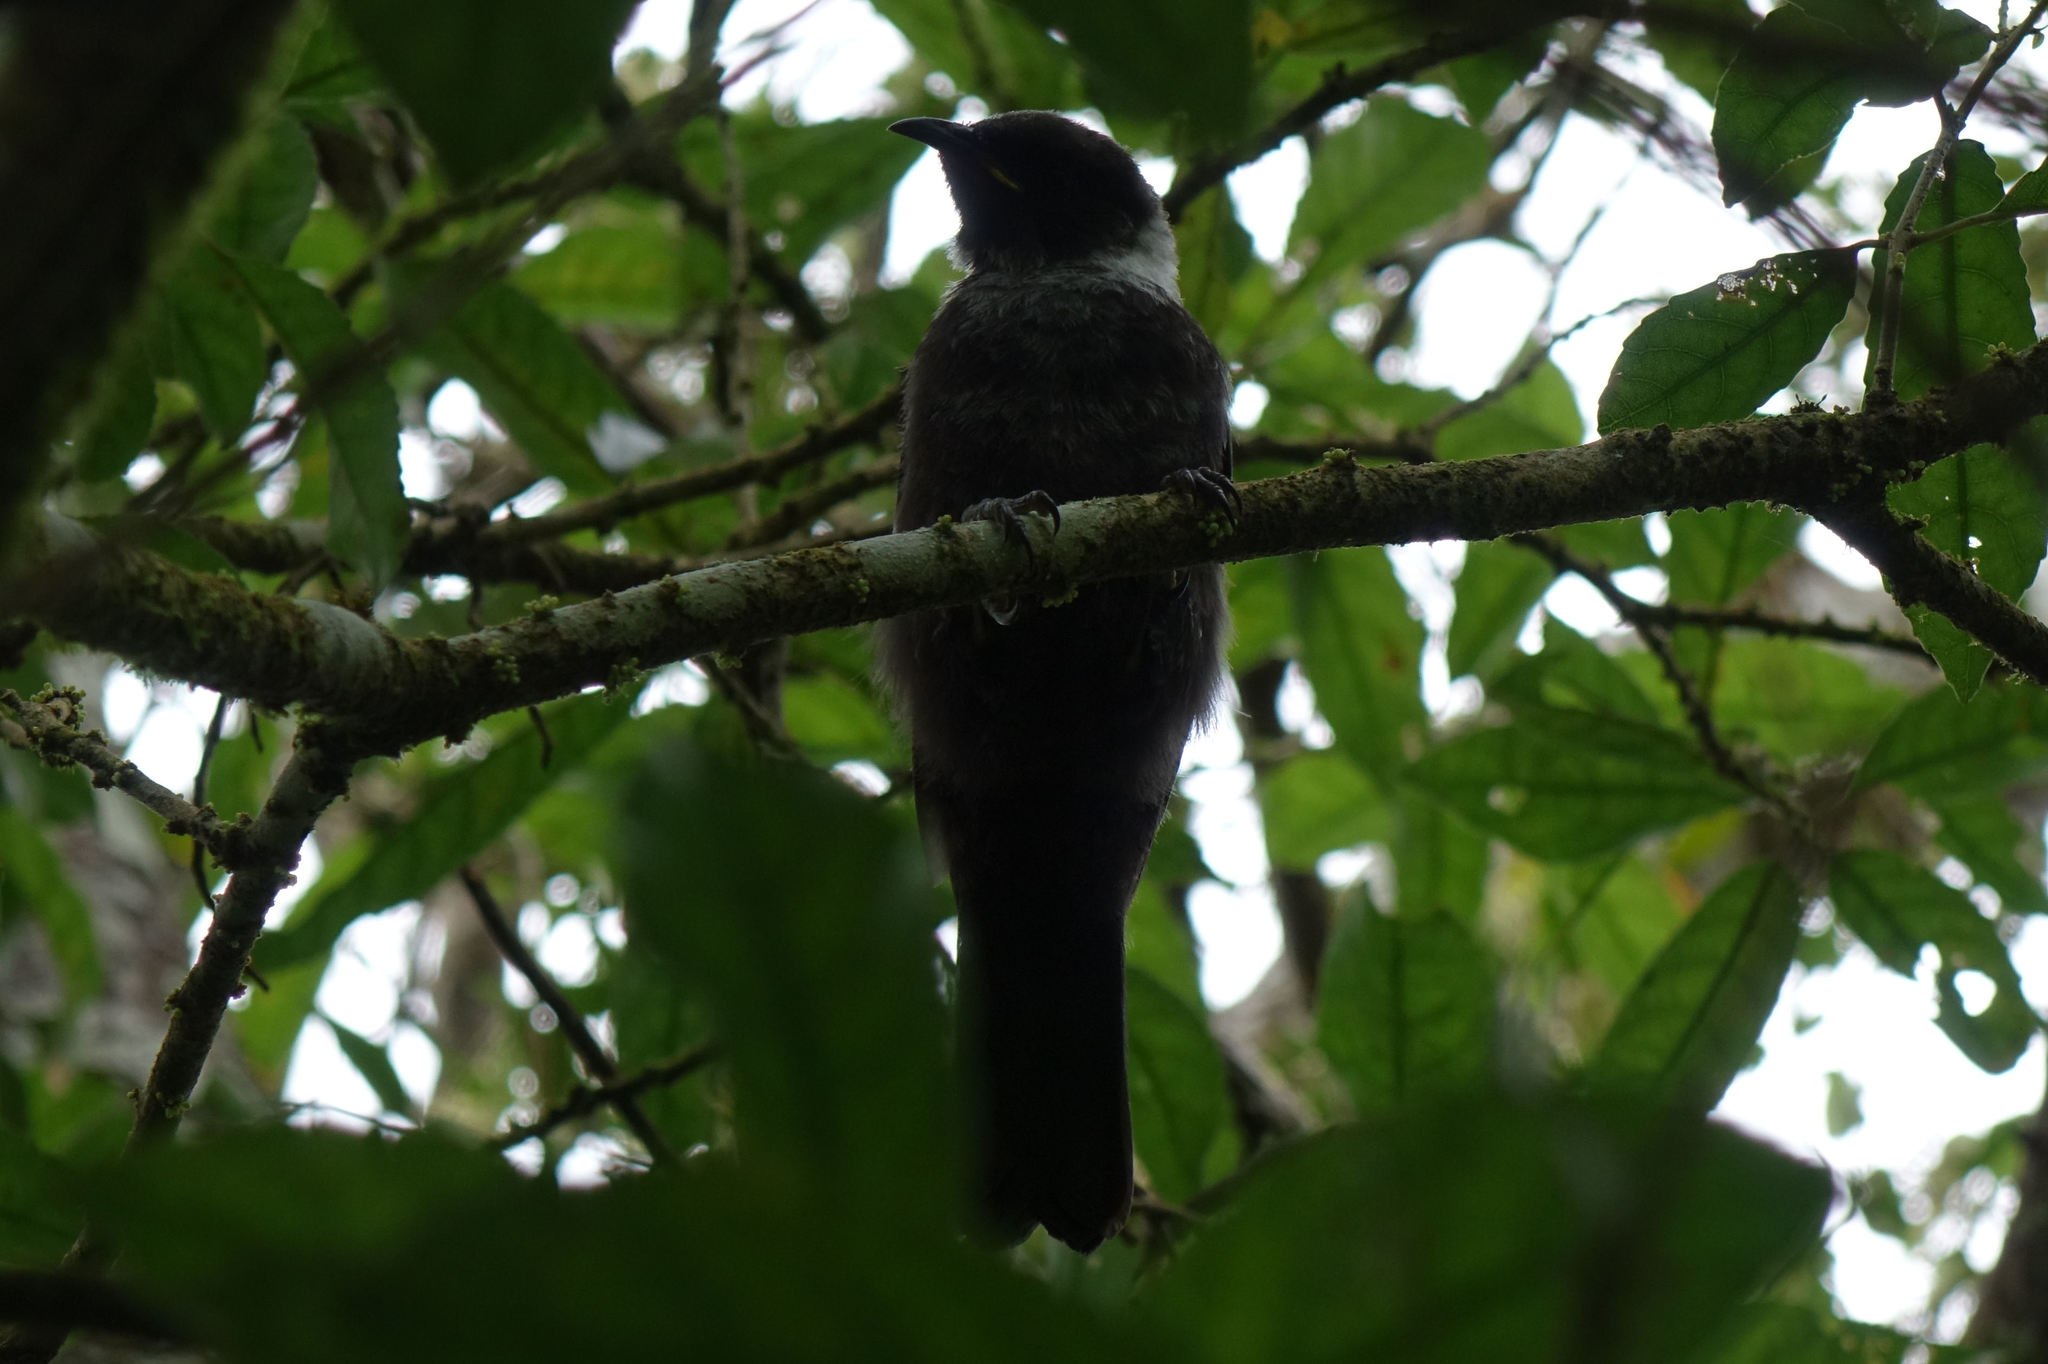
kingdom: Animalia
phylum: Chordata
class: Aves
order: Passeriformes
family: Meliphagidae
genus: Prosthemadera
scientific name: Prosthemadera novaeseelandiae
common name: Tui
